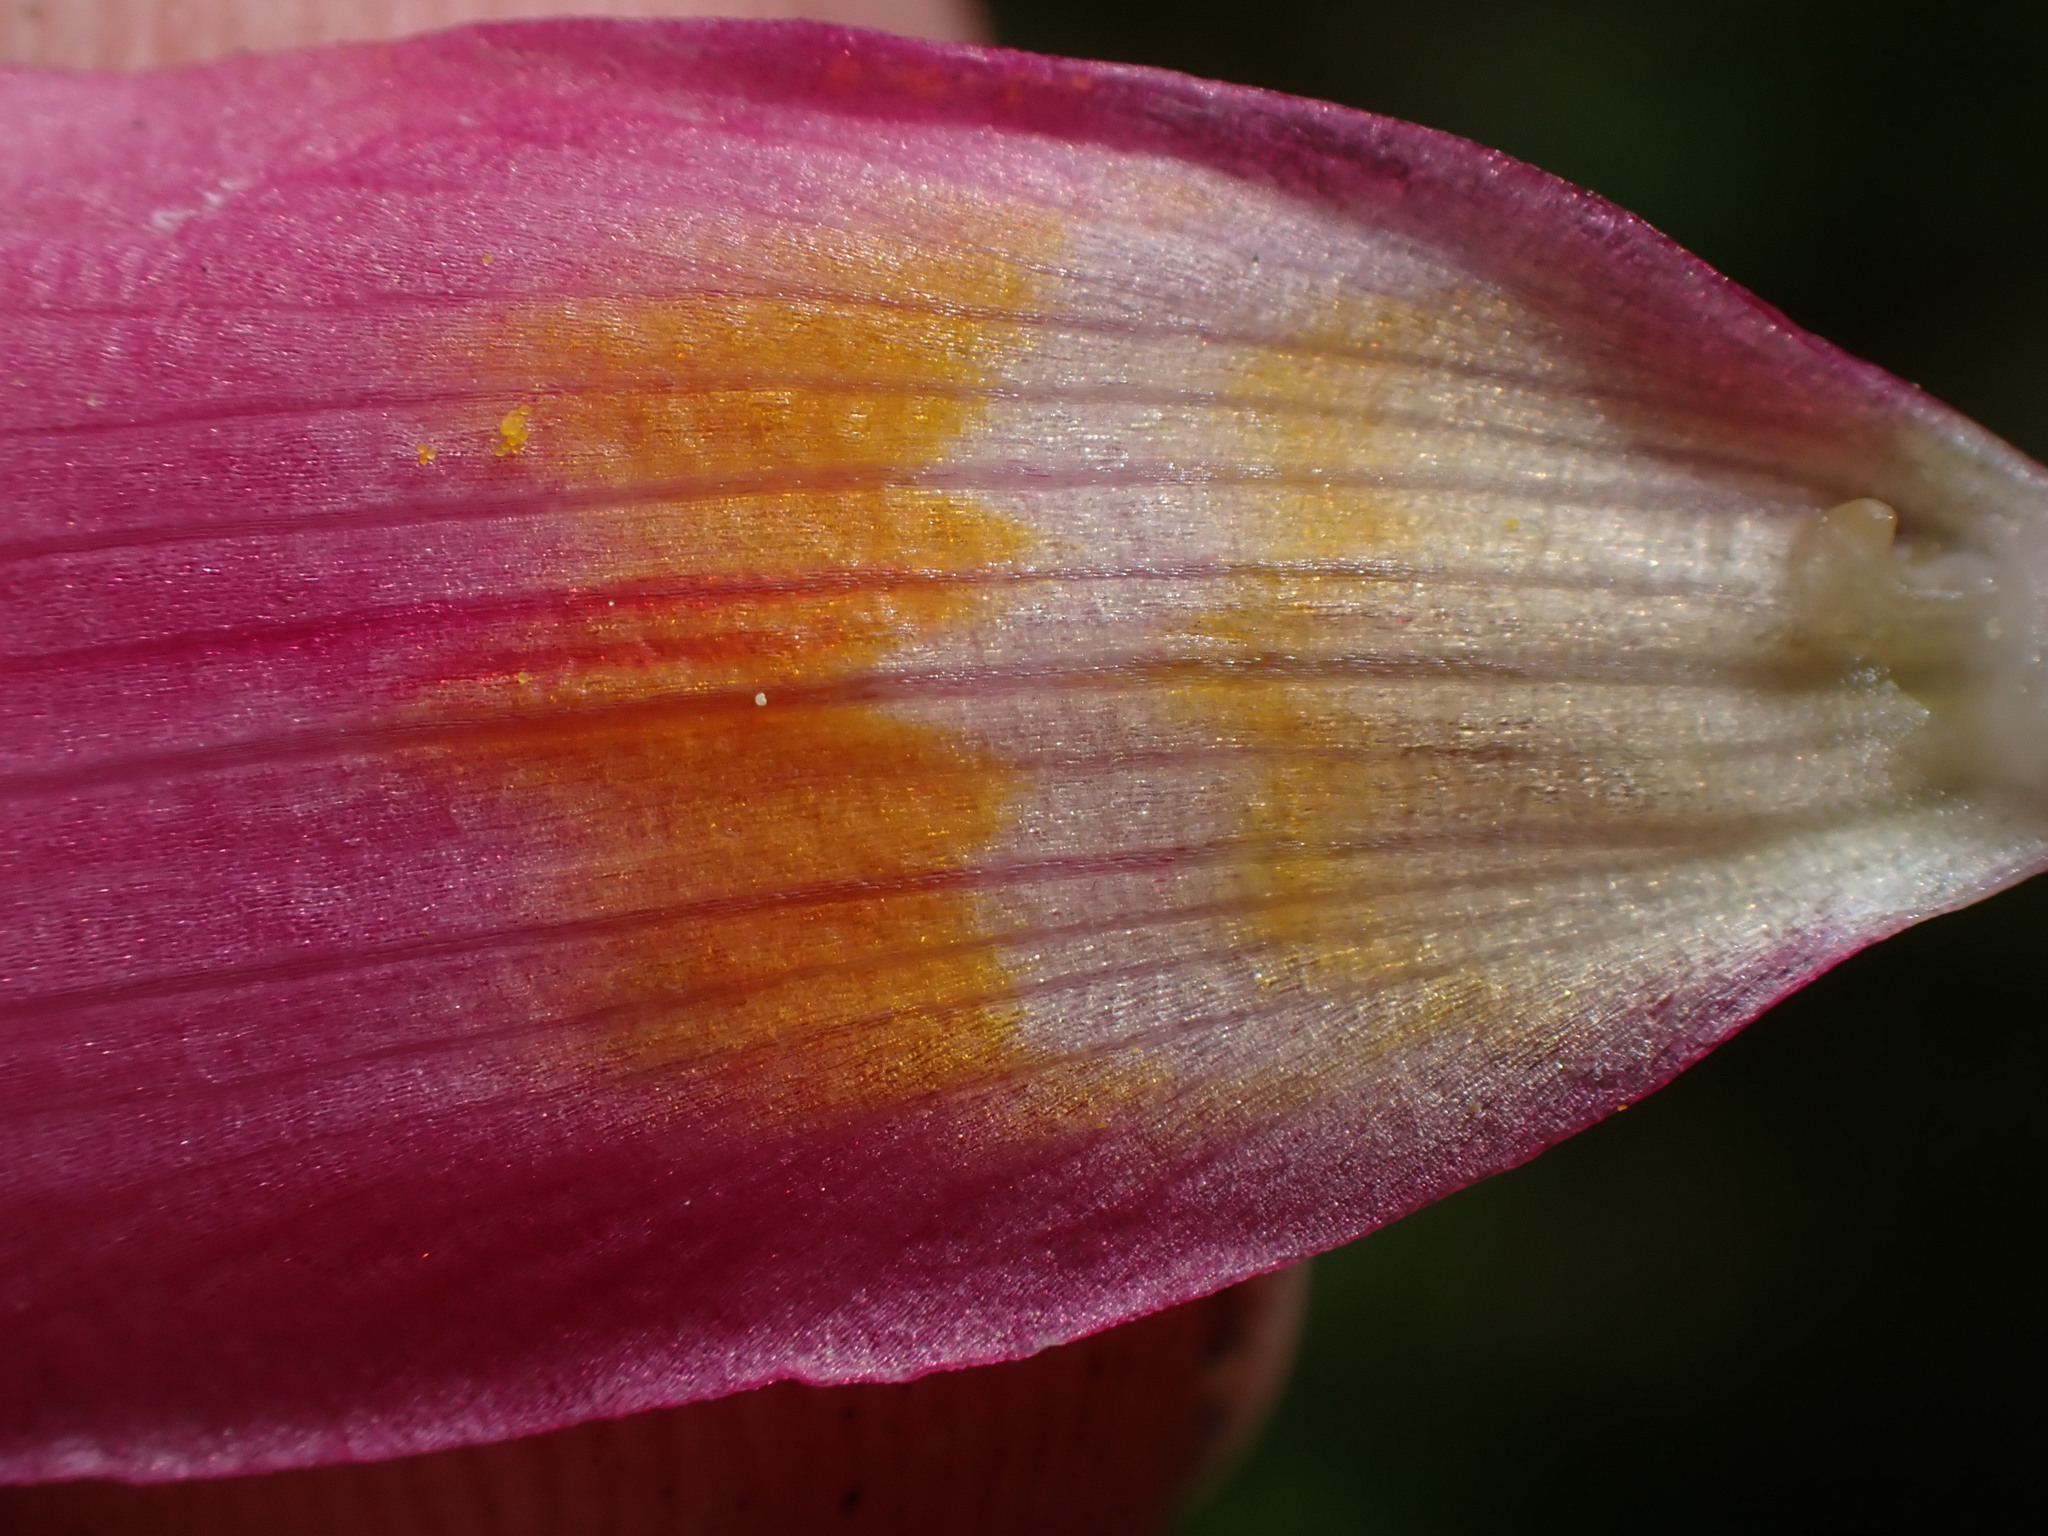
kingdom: Plantae
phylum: Tracheophyta
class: Liliopsida
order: Liliales
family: Liliaceae
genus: Erythronium
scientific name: Erythronium revolutum
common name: Pink fawn-lily
